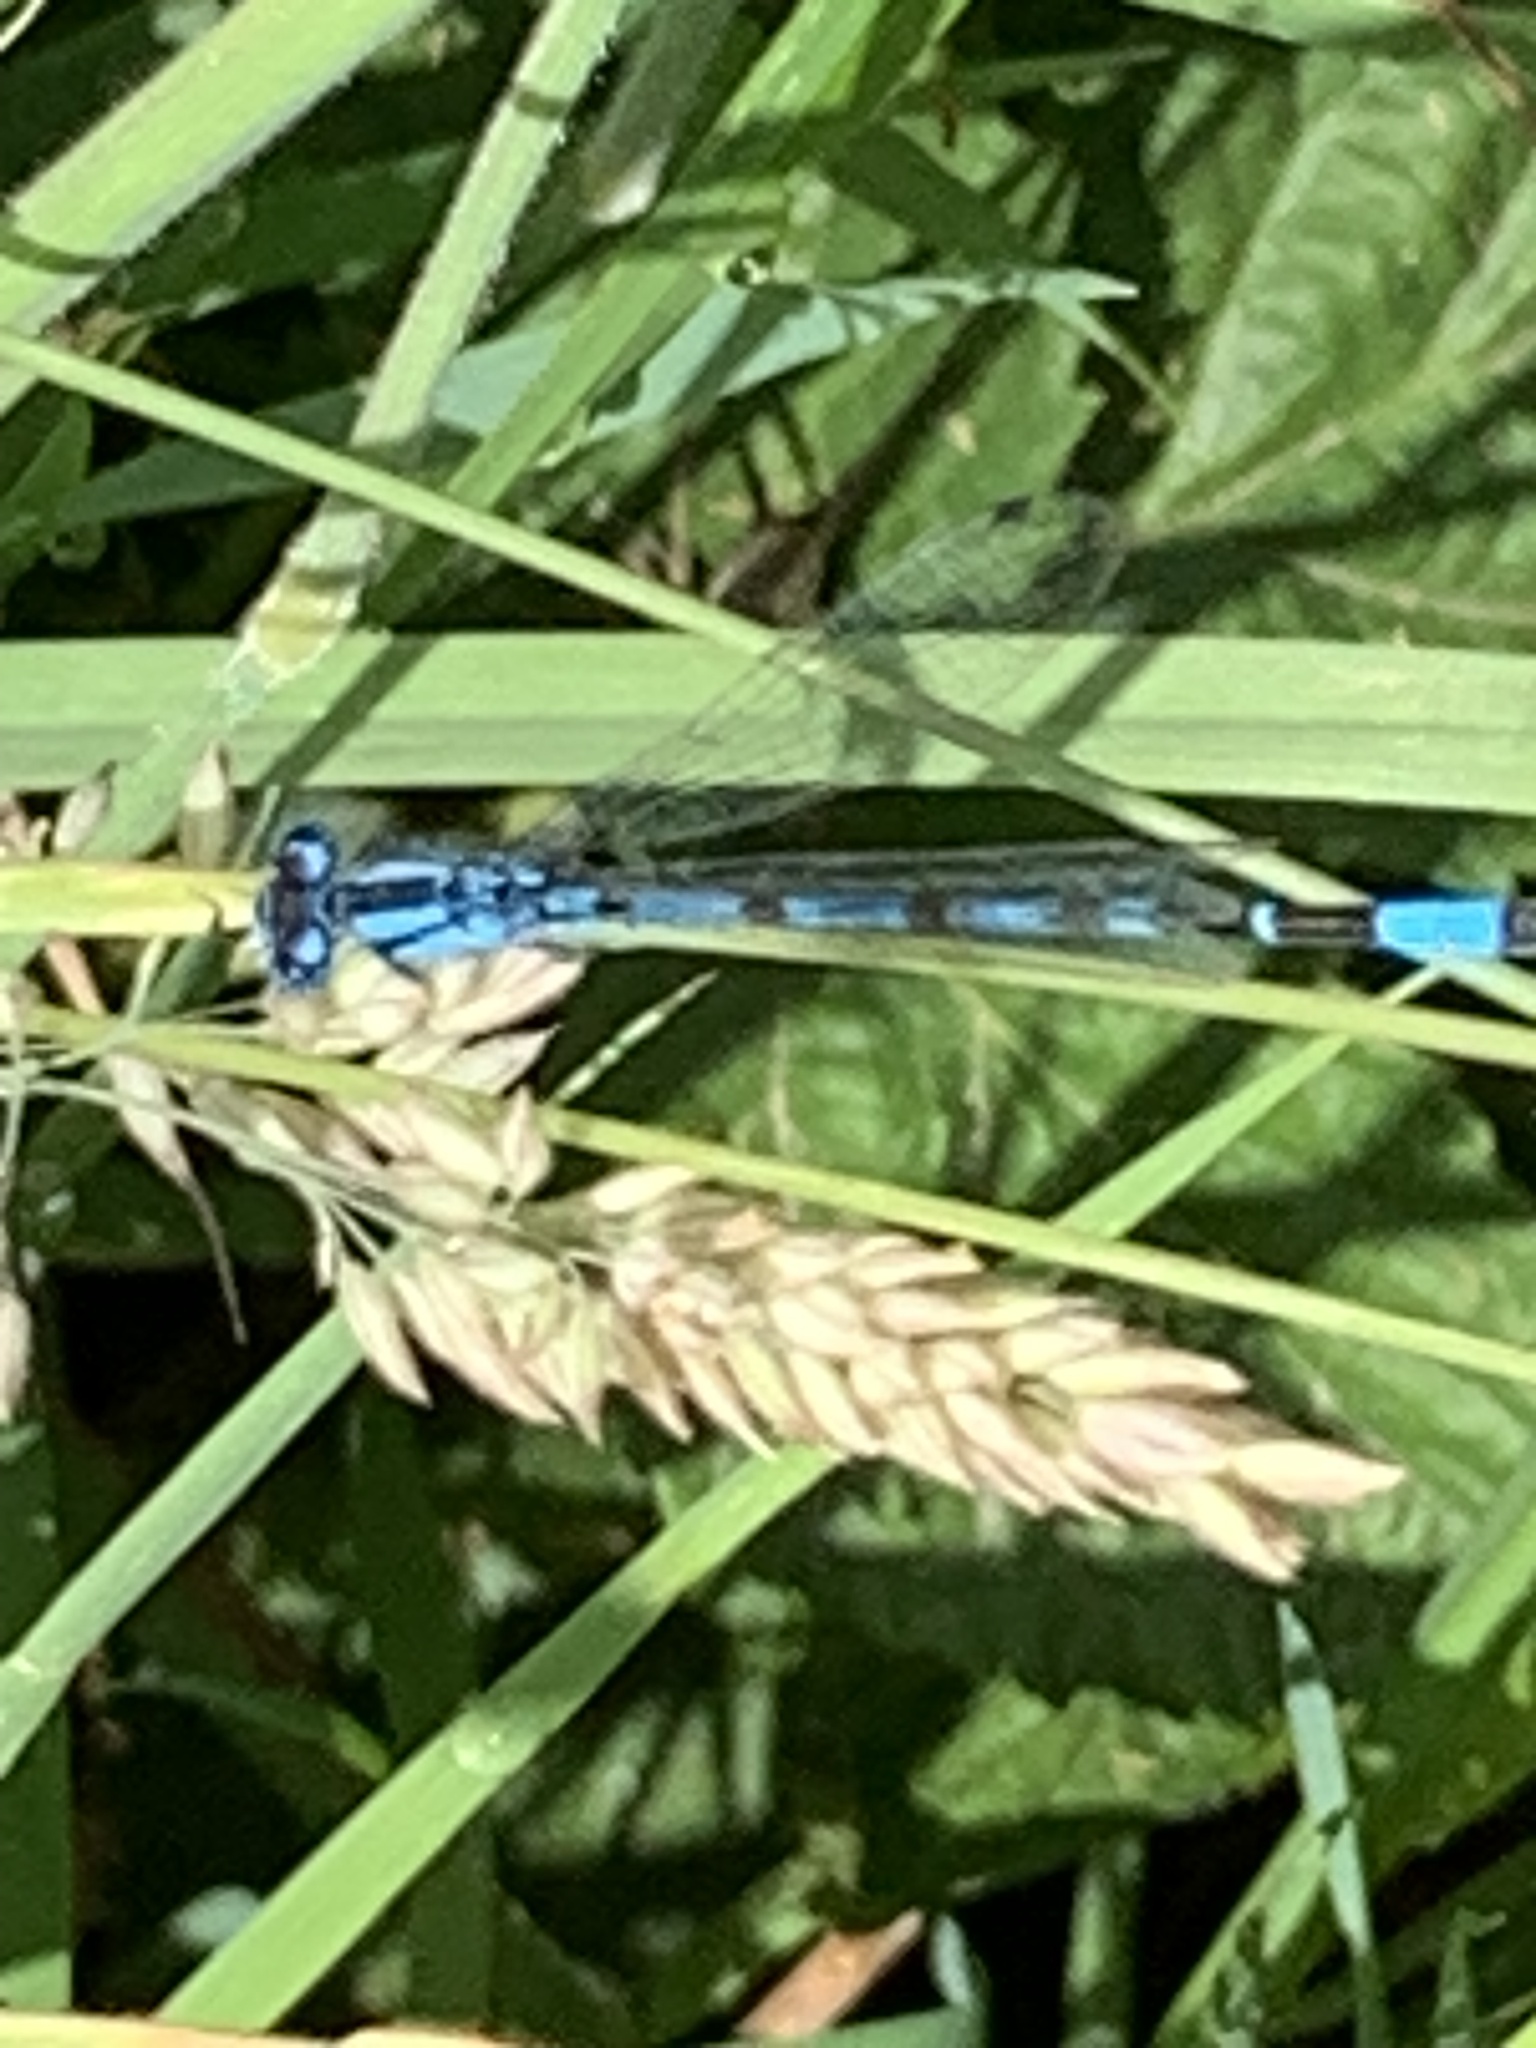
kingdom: Animalia
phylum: Arthropoda
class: Insecta
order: Odonata
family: Coenagrionidae
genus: Enallagma
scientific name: Enallagma cyathigerum
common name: Common blue damselfly
